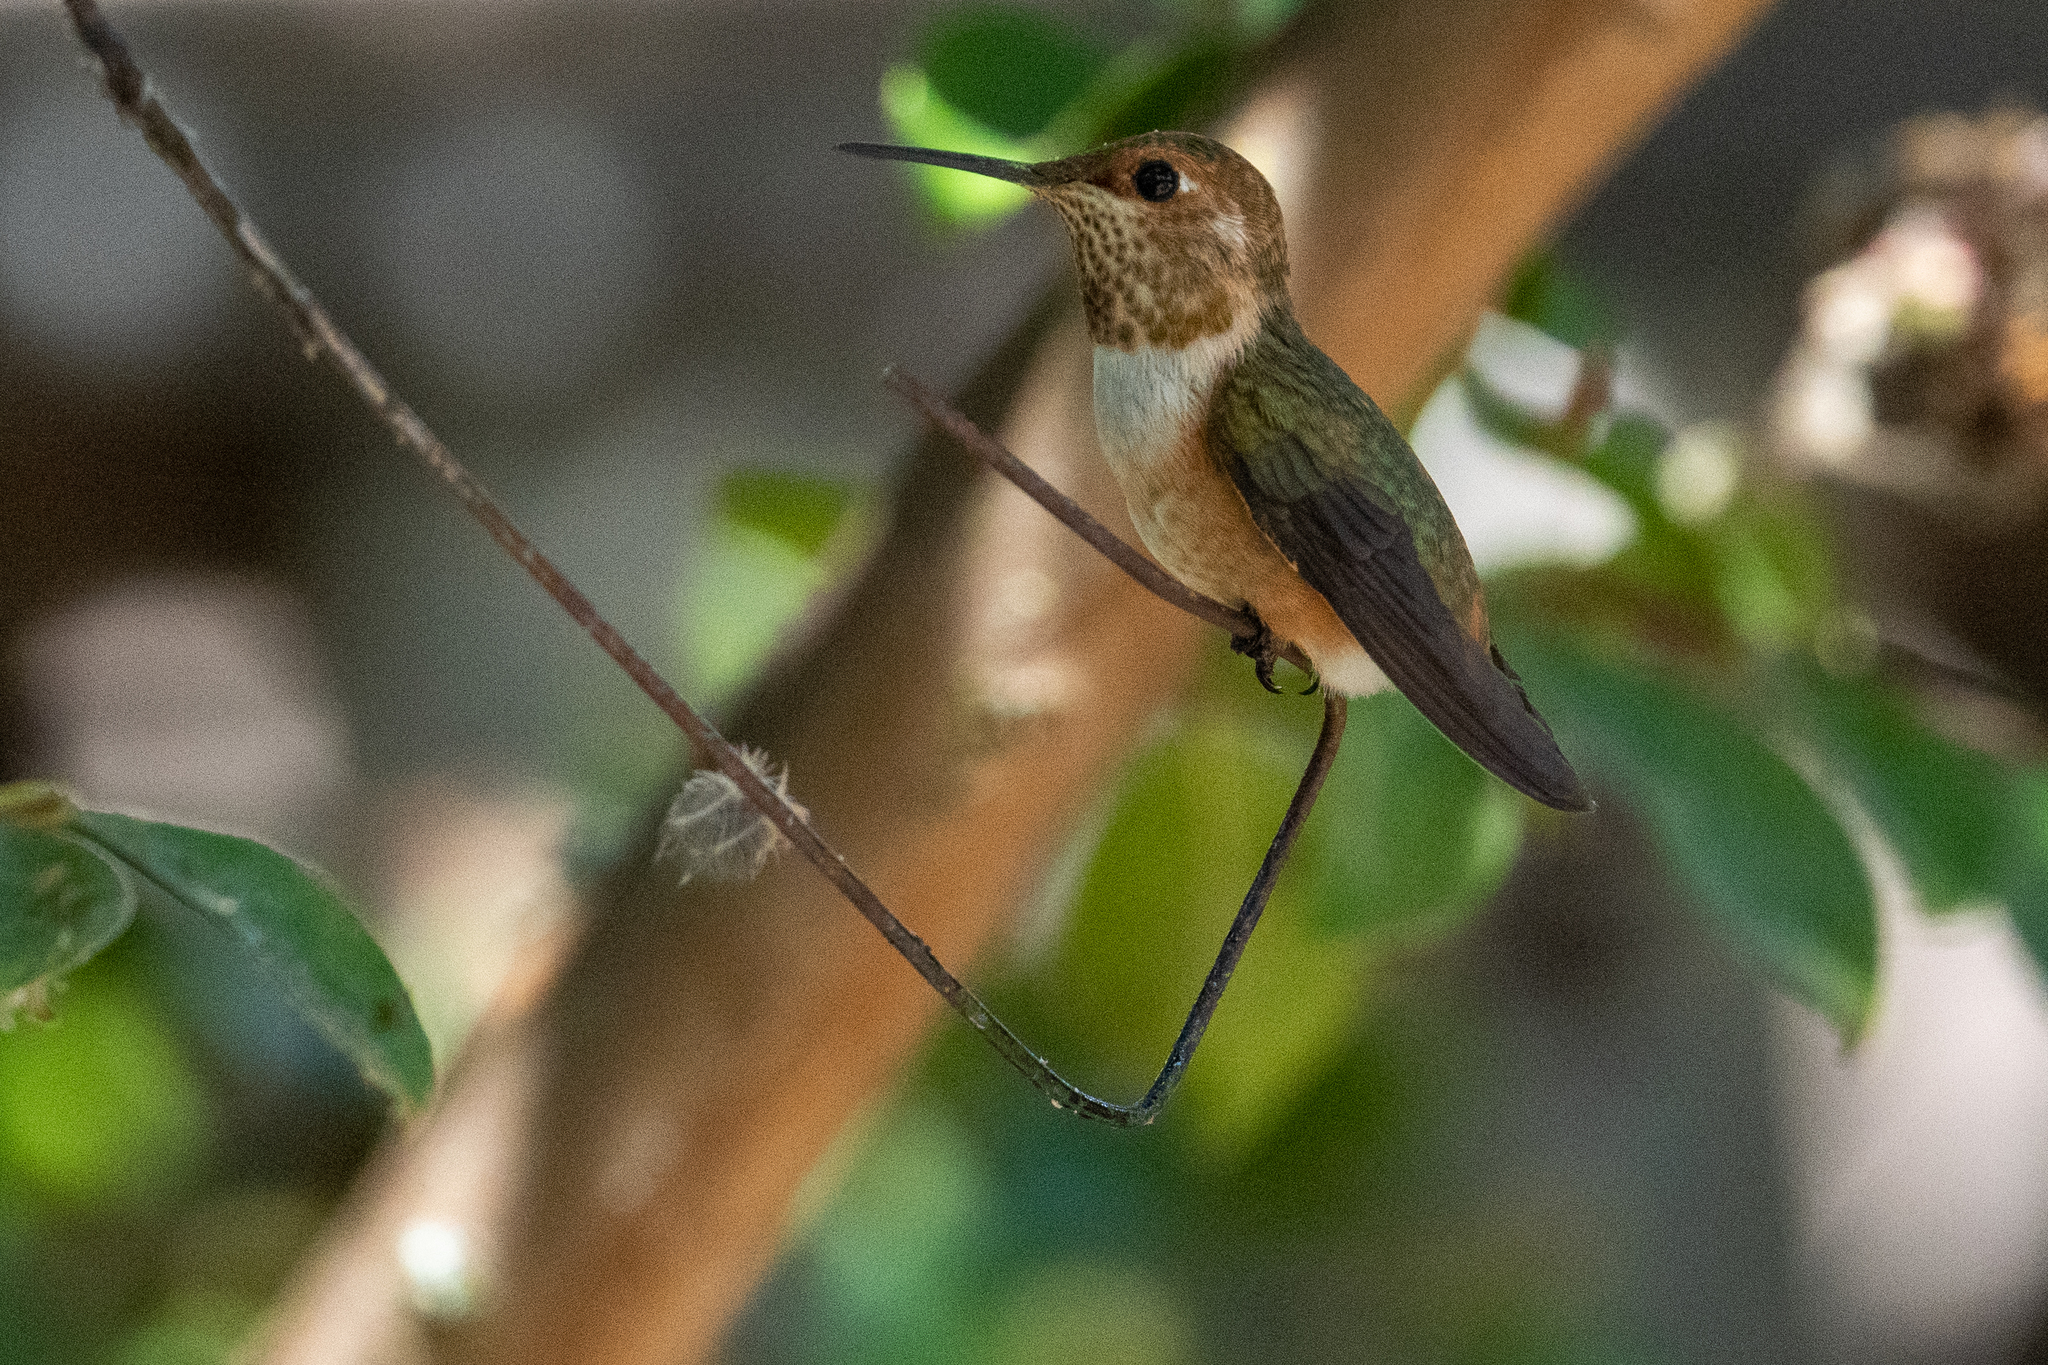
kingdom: Animalia
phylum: Chordata
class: Aves
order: Apodiformes
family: Trochilidae
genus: Selasphorus
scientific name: Selasphorus rufus
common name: Rufous hummingbird
